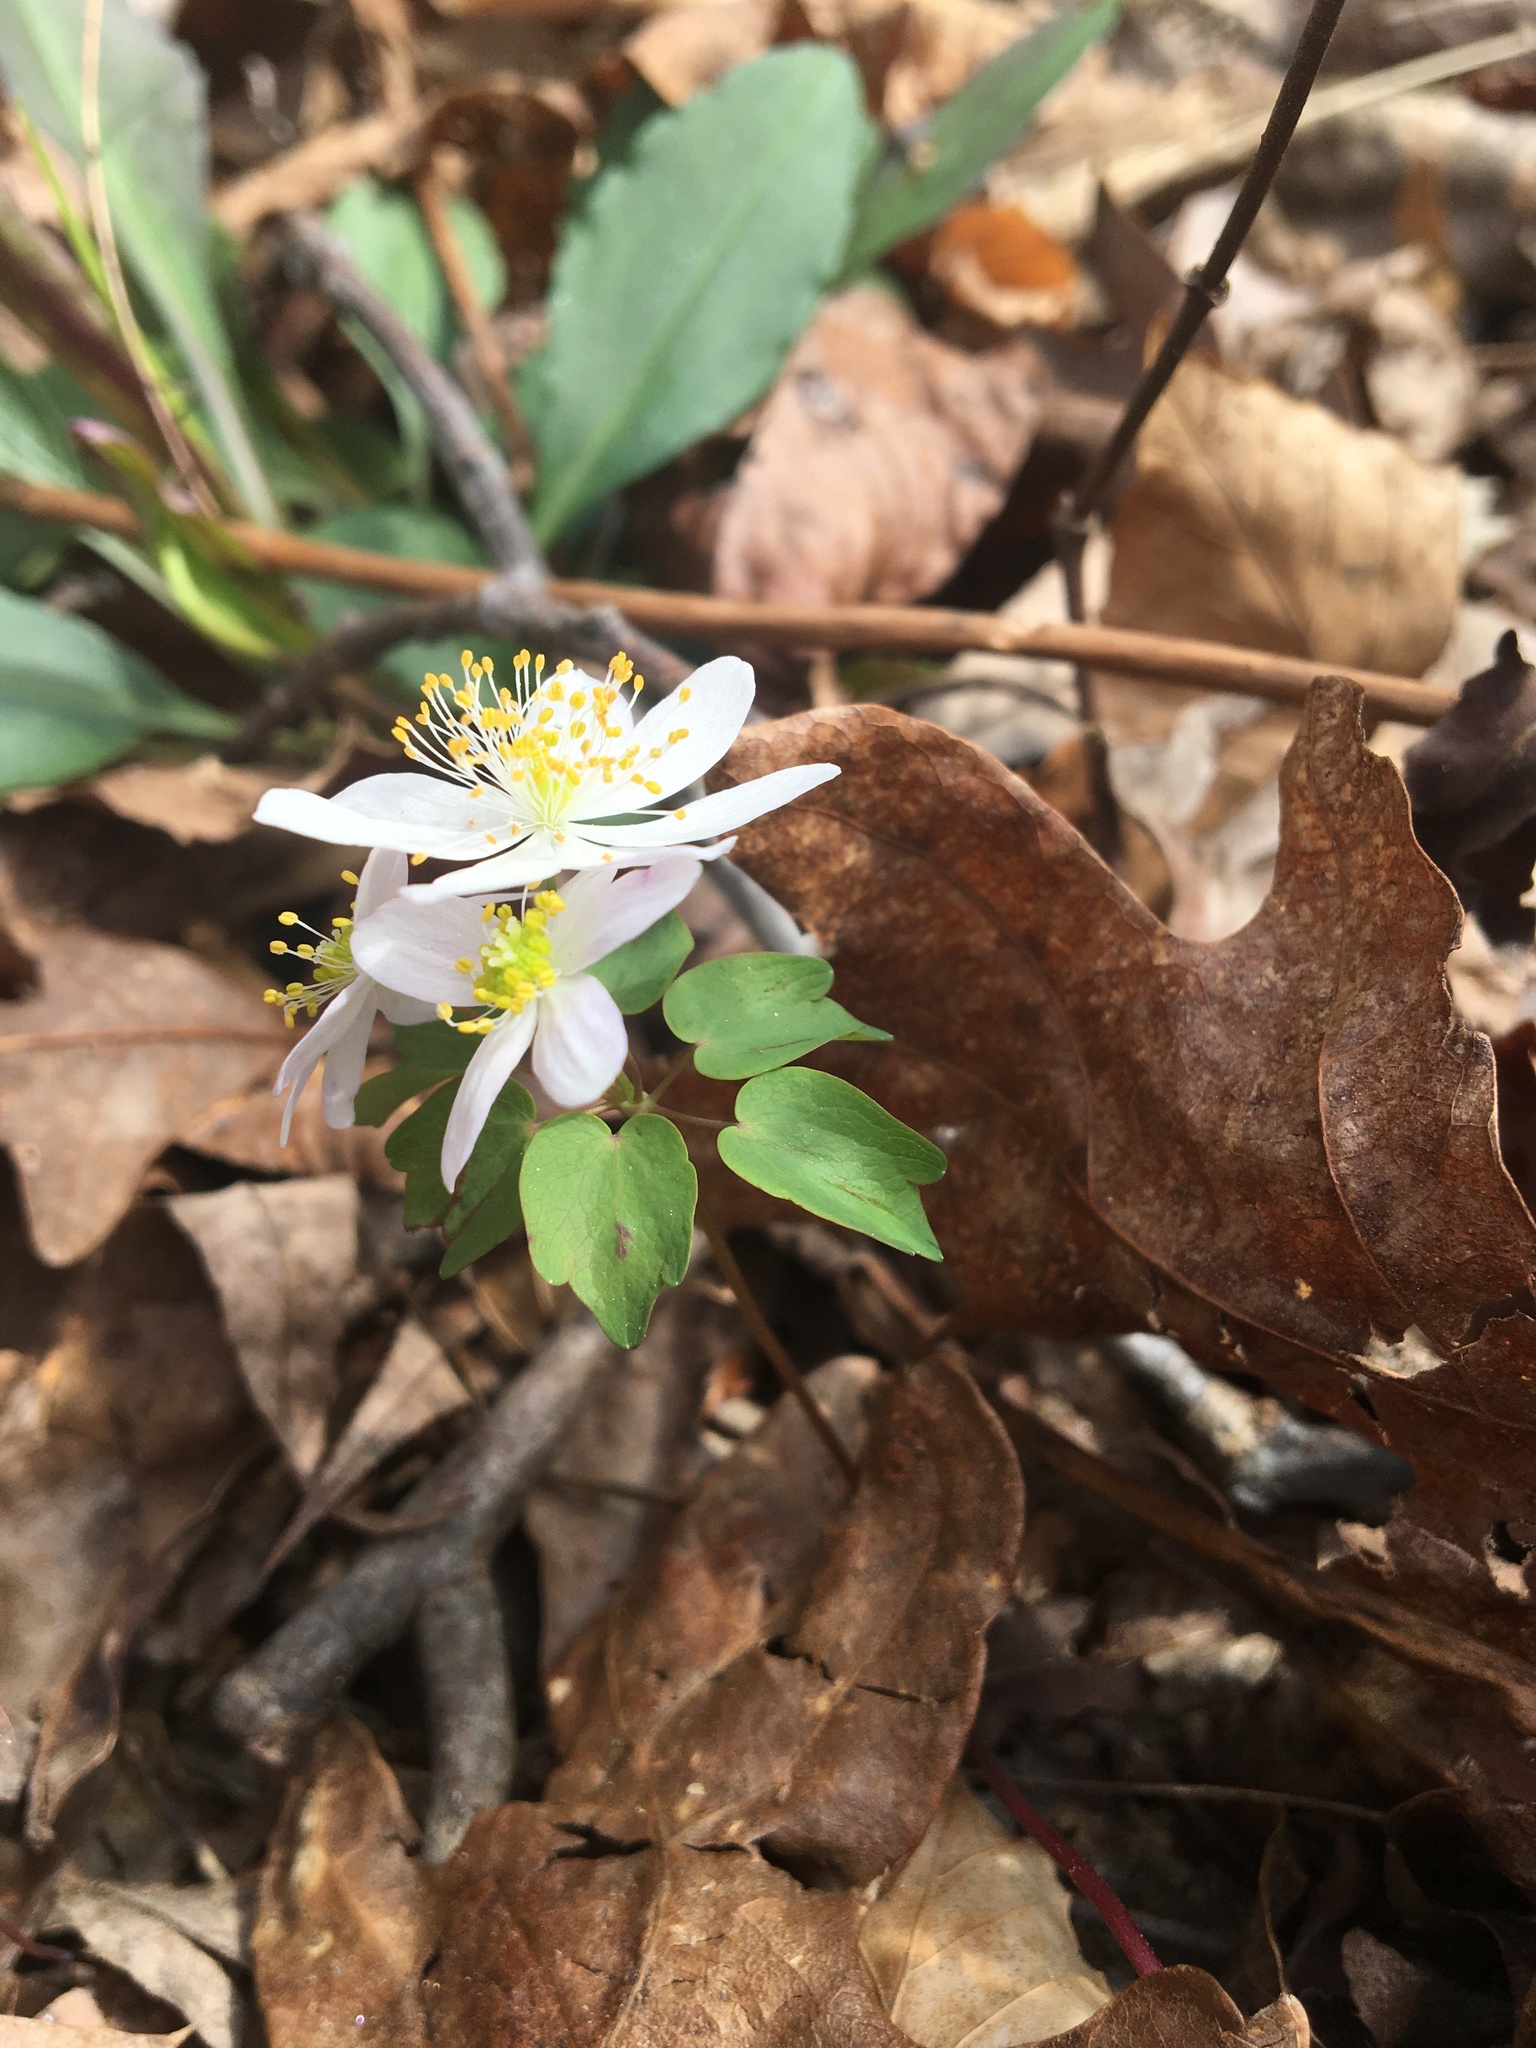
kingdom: Plantae
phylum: Tracheophyta
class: Magnoliopsida
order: Ranunculales
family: Ranunculaceae
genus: Thalictrum
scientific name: Thalictrum thalictroides
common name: Rue-anemone
